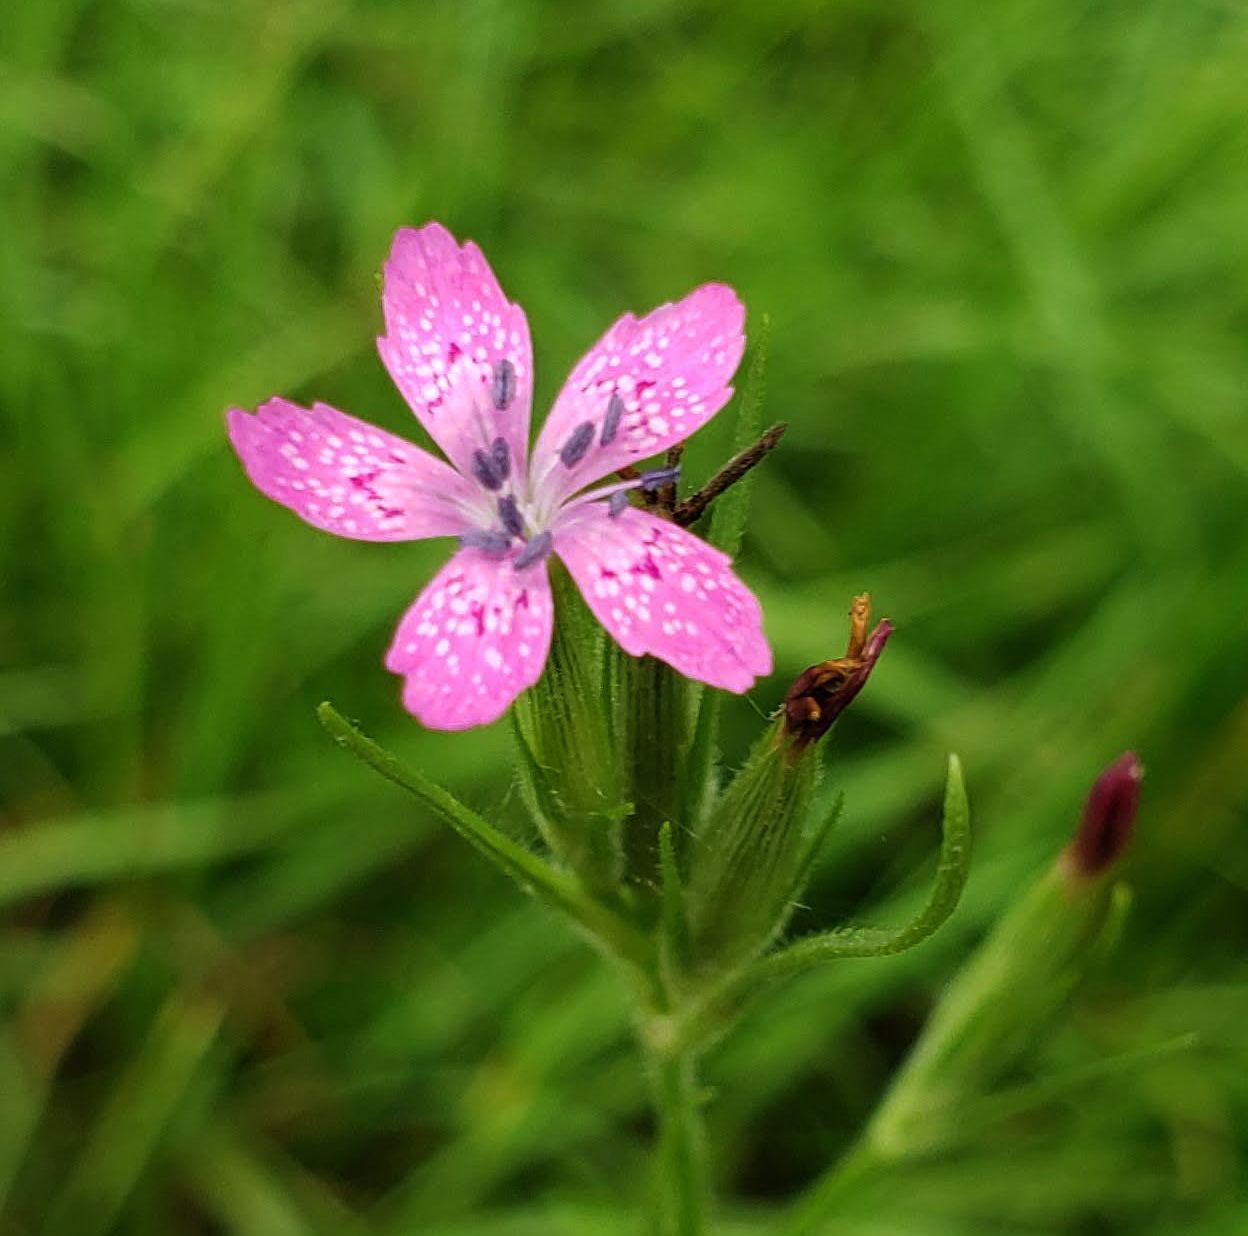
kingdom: Plantae
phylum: Tracheophyta
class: Magnoliopsida
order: Caryophyllales
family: Caryophyllaceae
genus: Dianthus
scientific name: Dianthus armeria
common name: Deptford pink
